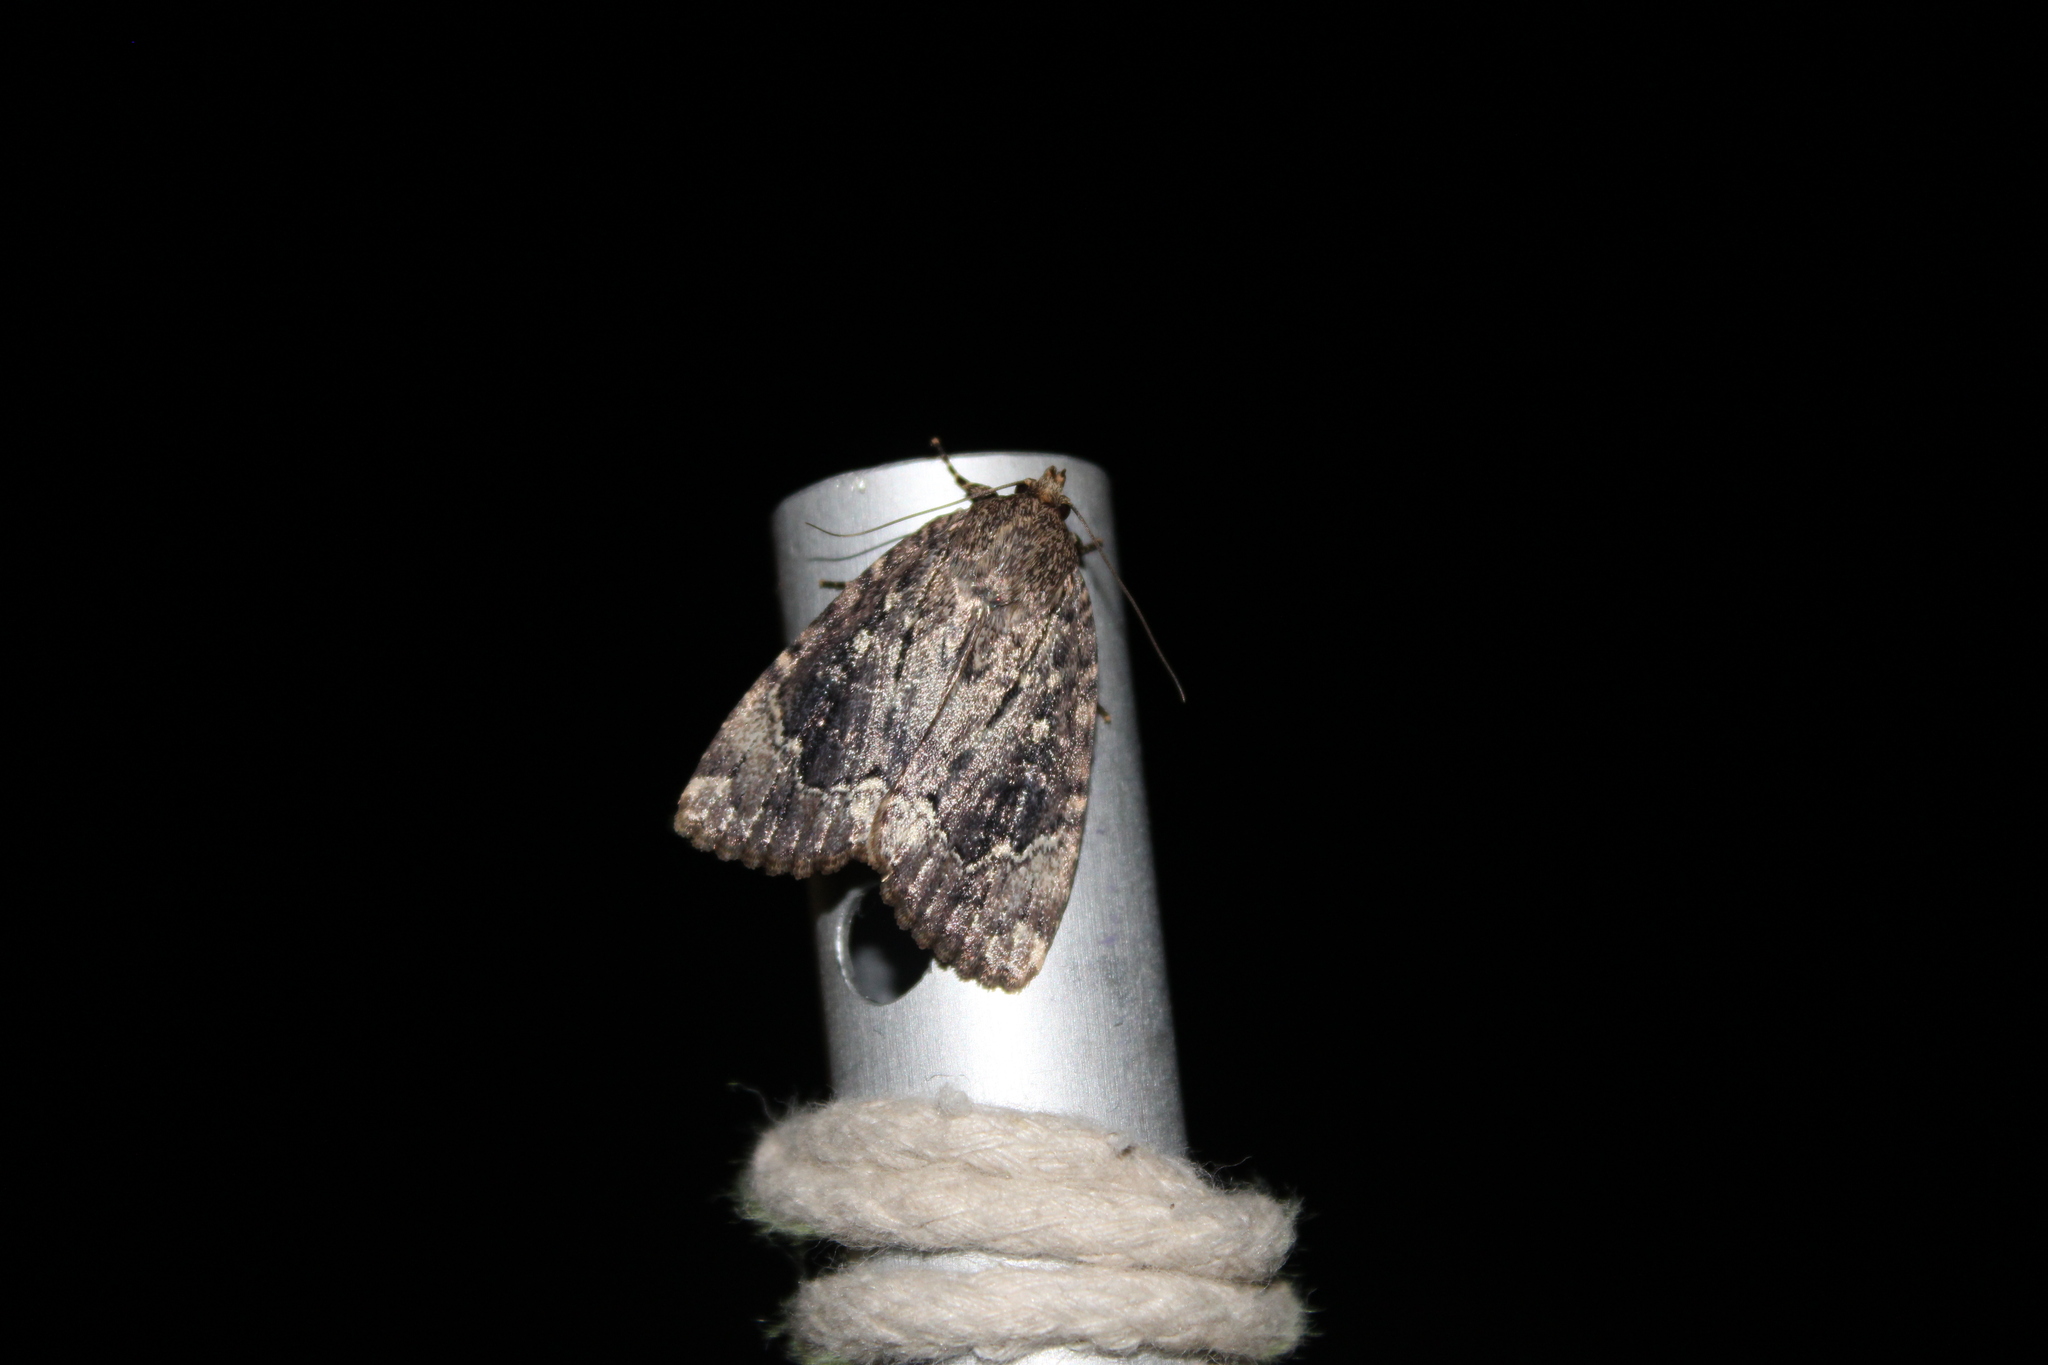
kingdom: Animalia
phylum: Arthropoda
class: Insecta
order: Lepidoptera
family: Noctuidae
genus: Amphipyra
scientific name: Amphipyra pyramidoides
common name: American copper underwing
